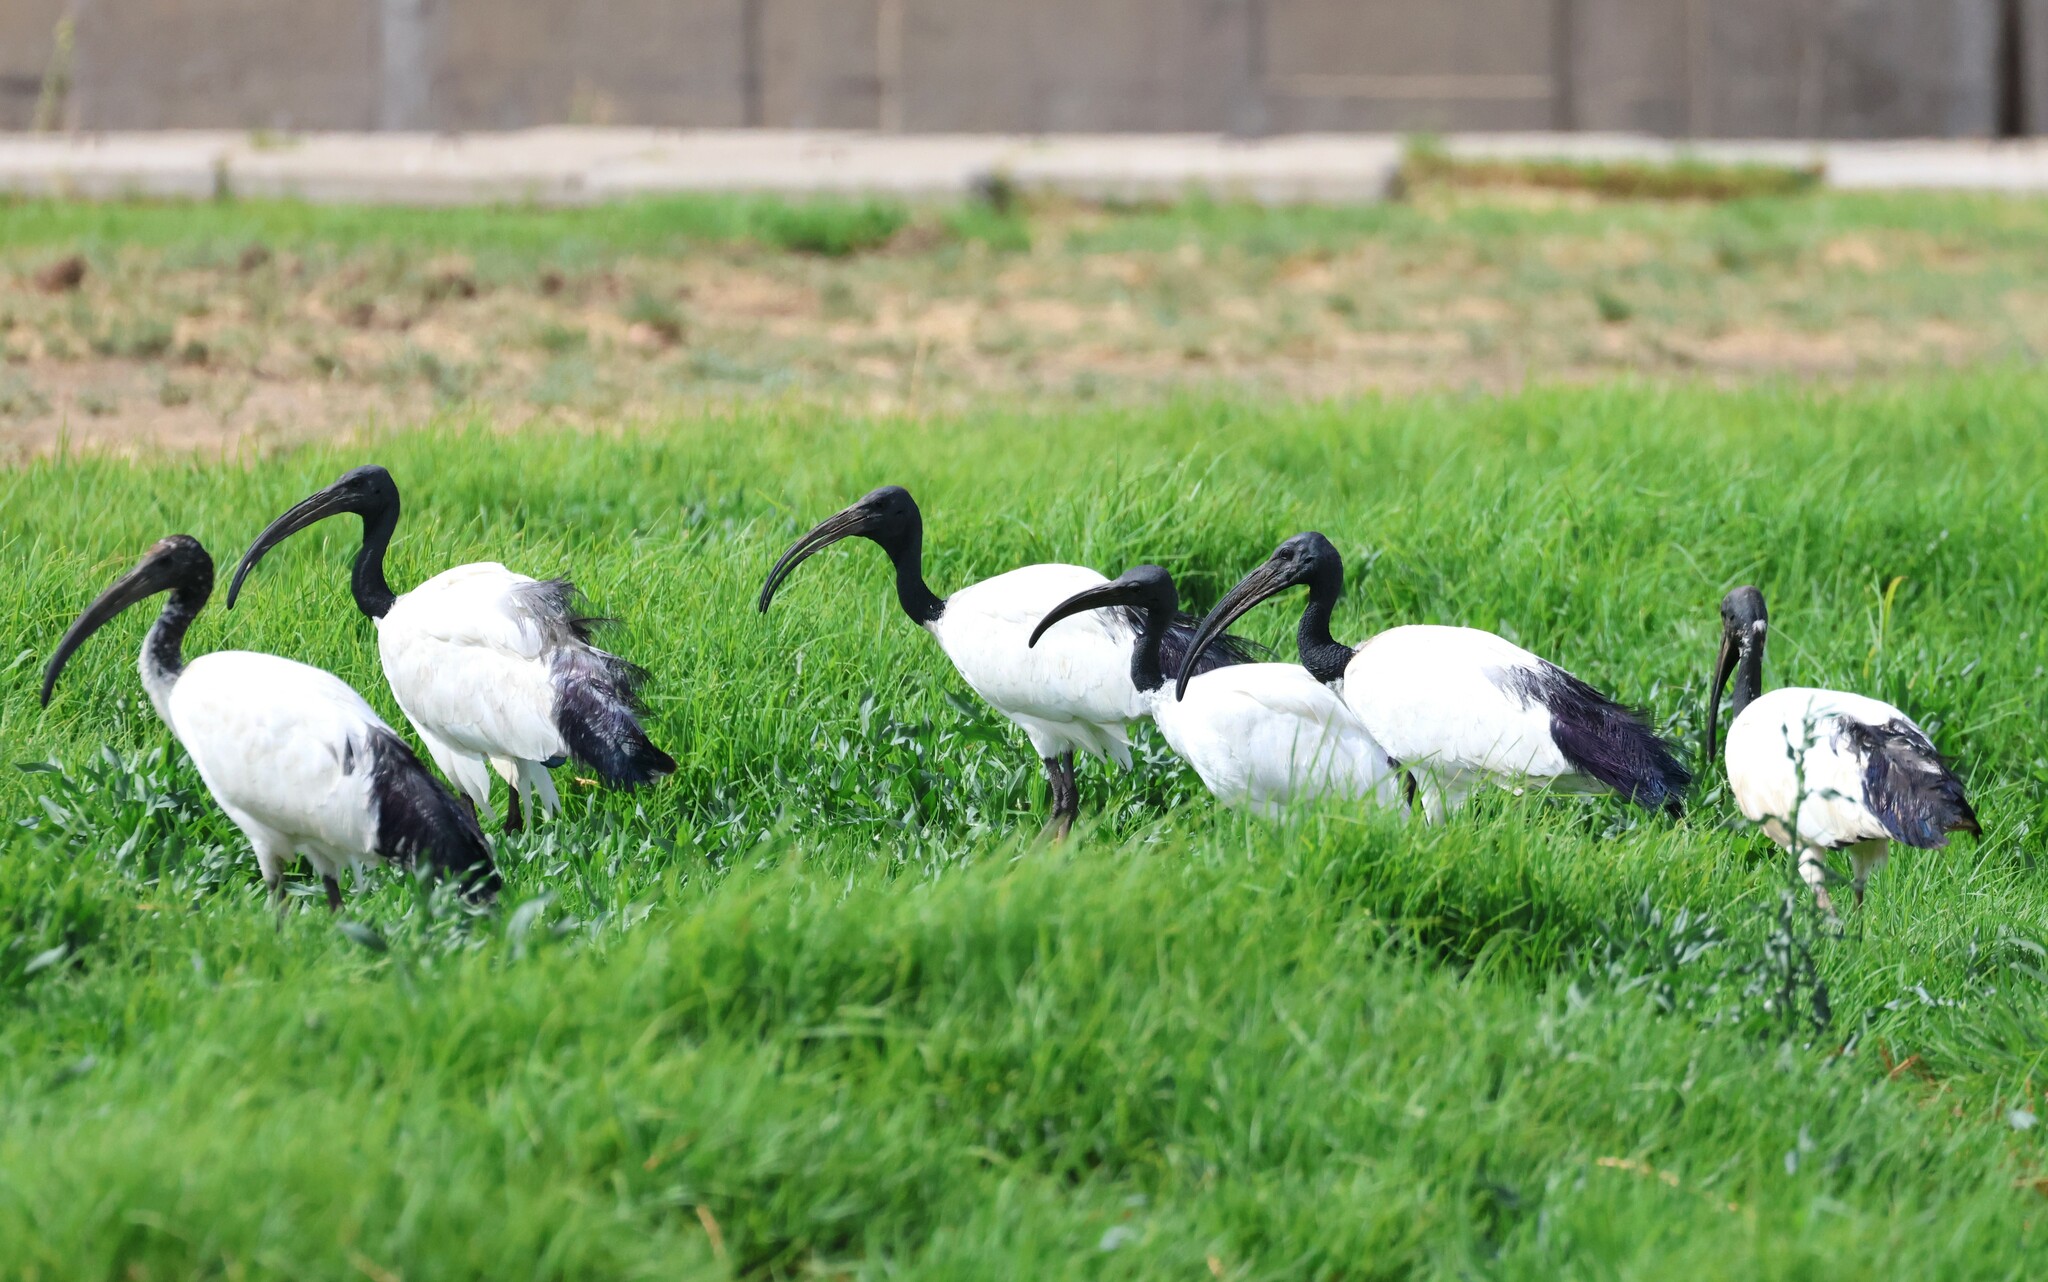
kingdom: Animalia
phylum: Chordata
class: Aves
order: Pelecaniformes
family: Threskiornithidae
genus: Threskiornis
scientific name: Threskiornis aethiopicus
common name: Sacred ibis
